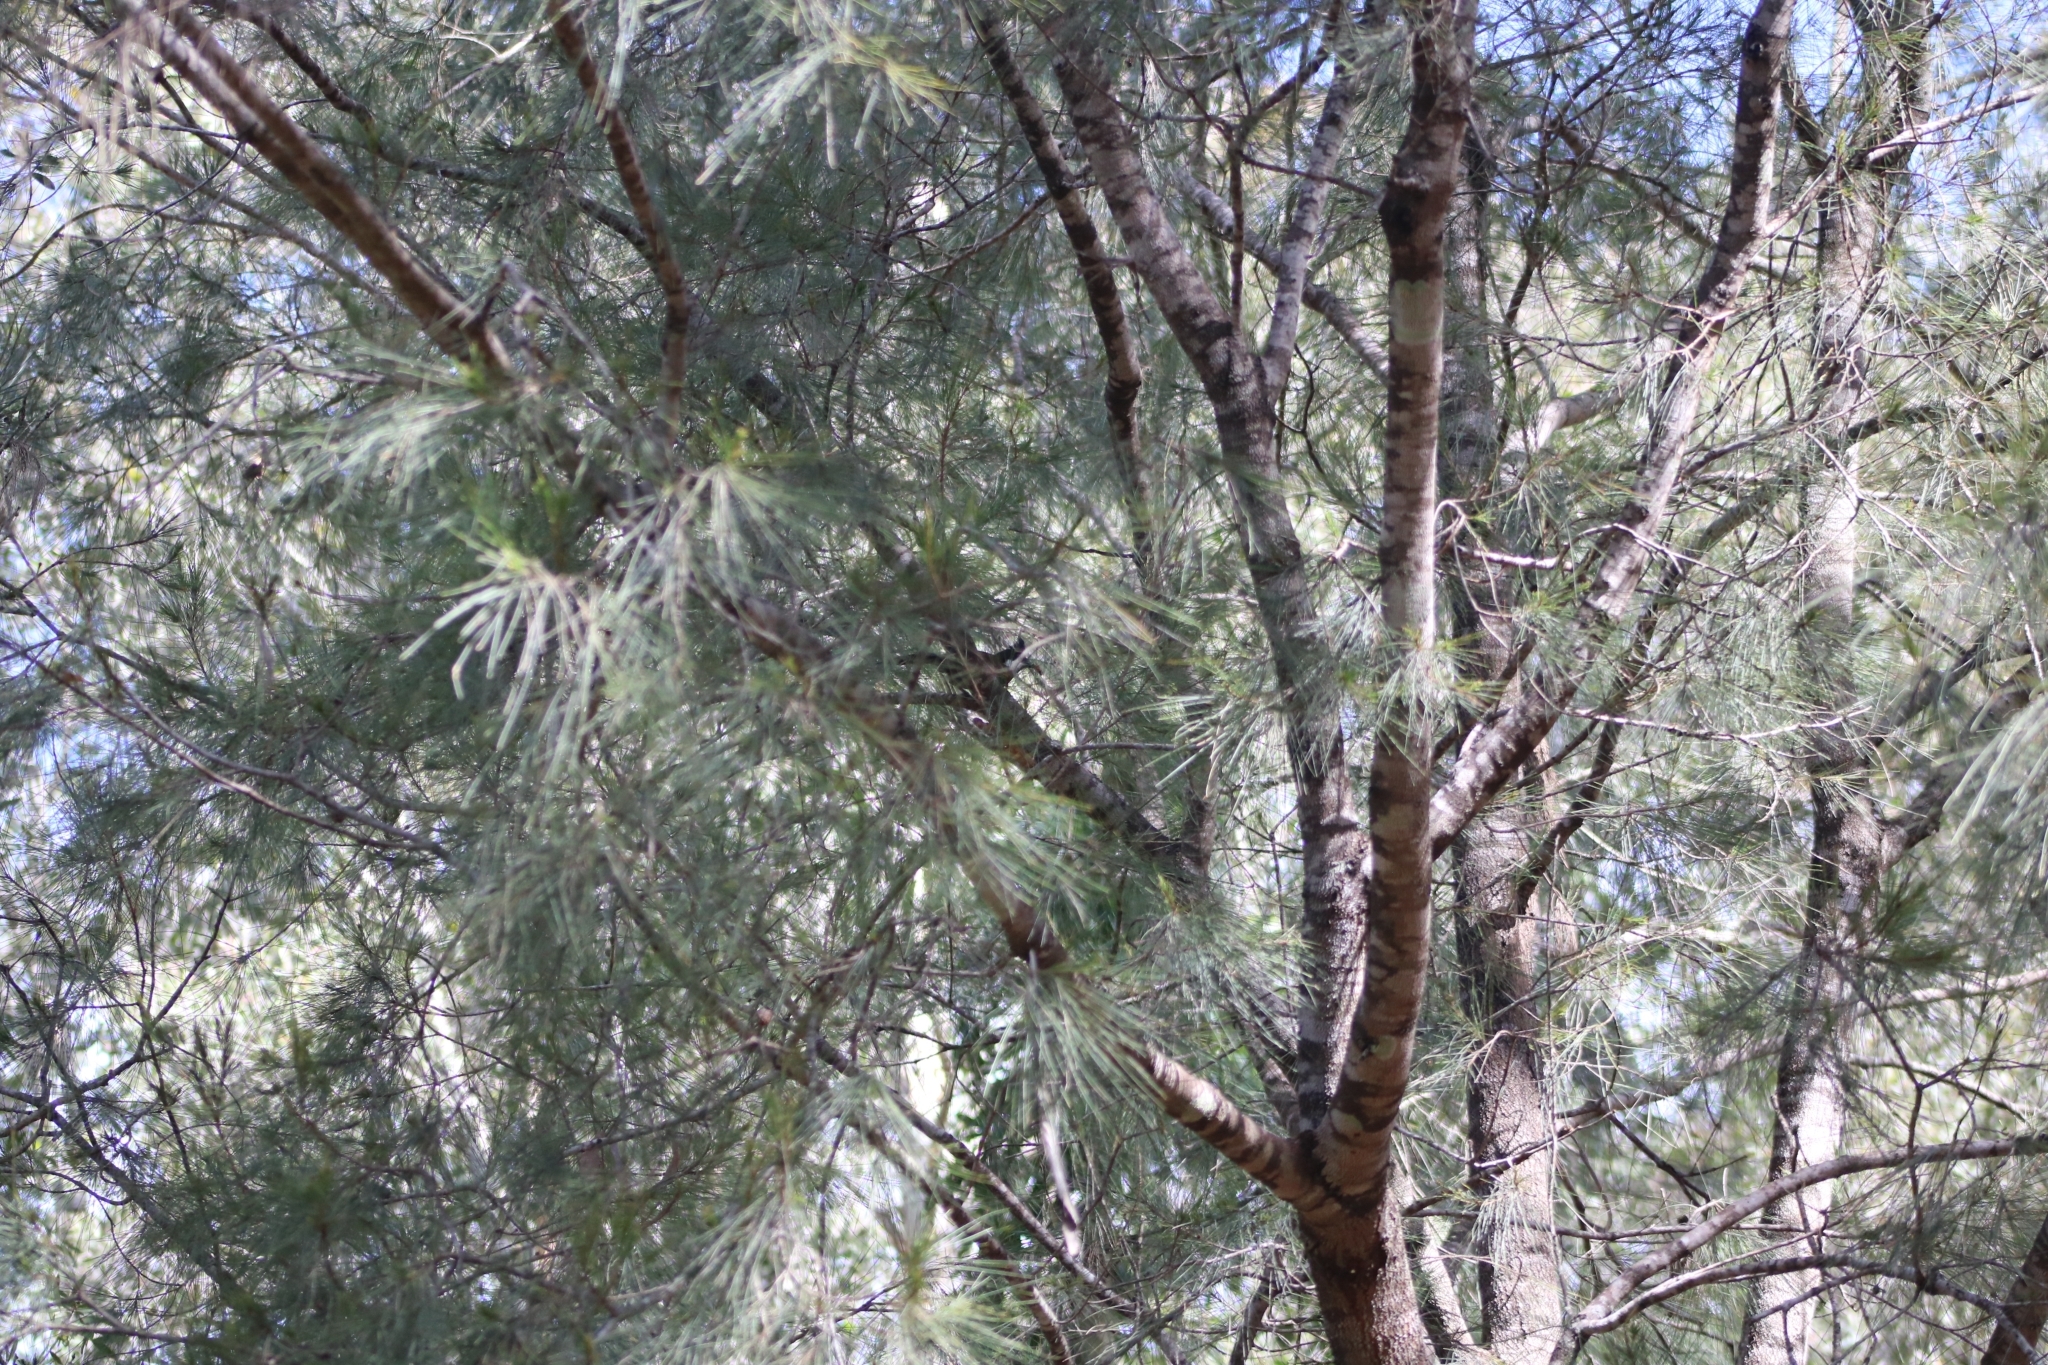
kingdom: Animalia
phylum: Chordata
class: Aves
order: Passeriformes
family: Psophodidae
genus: Psophodes
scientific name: Psophodes olivaceus
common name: Eastern whipbird
